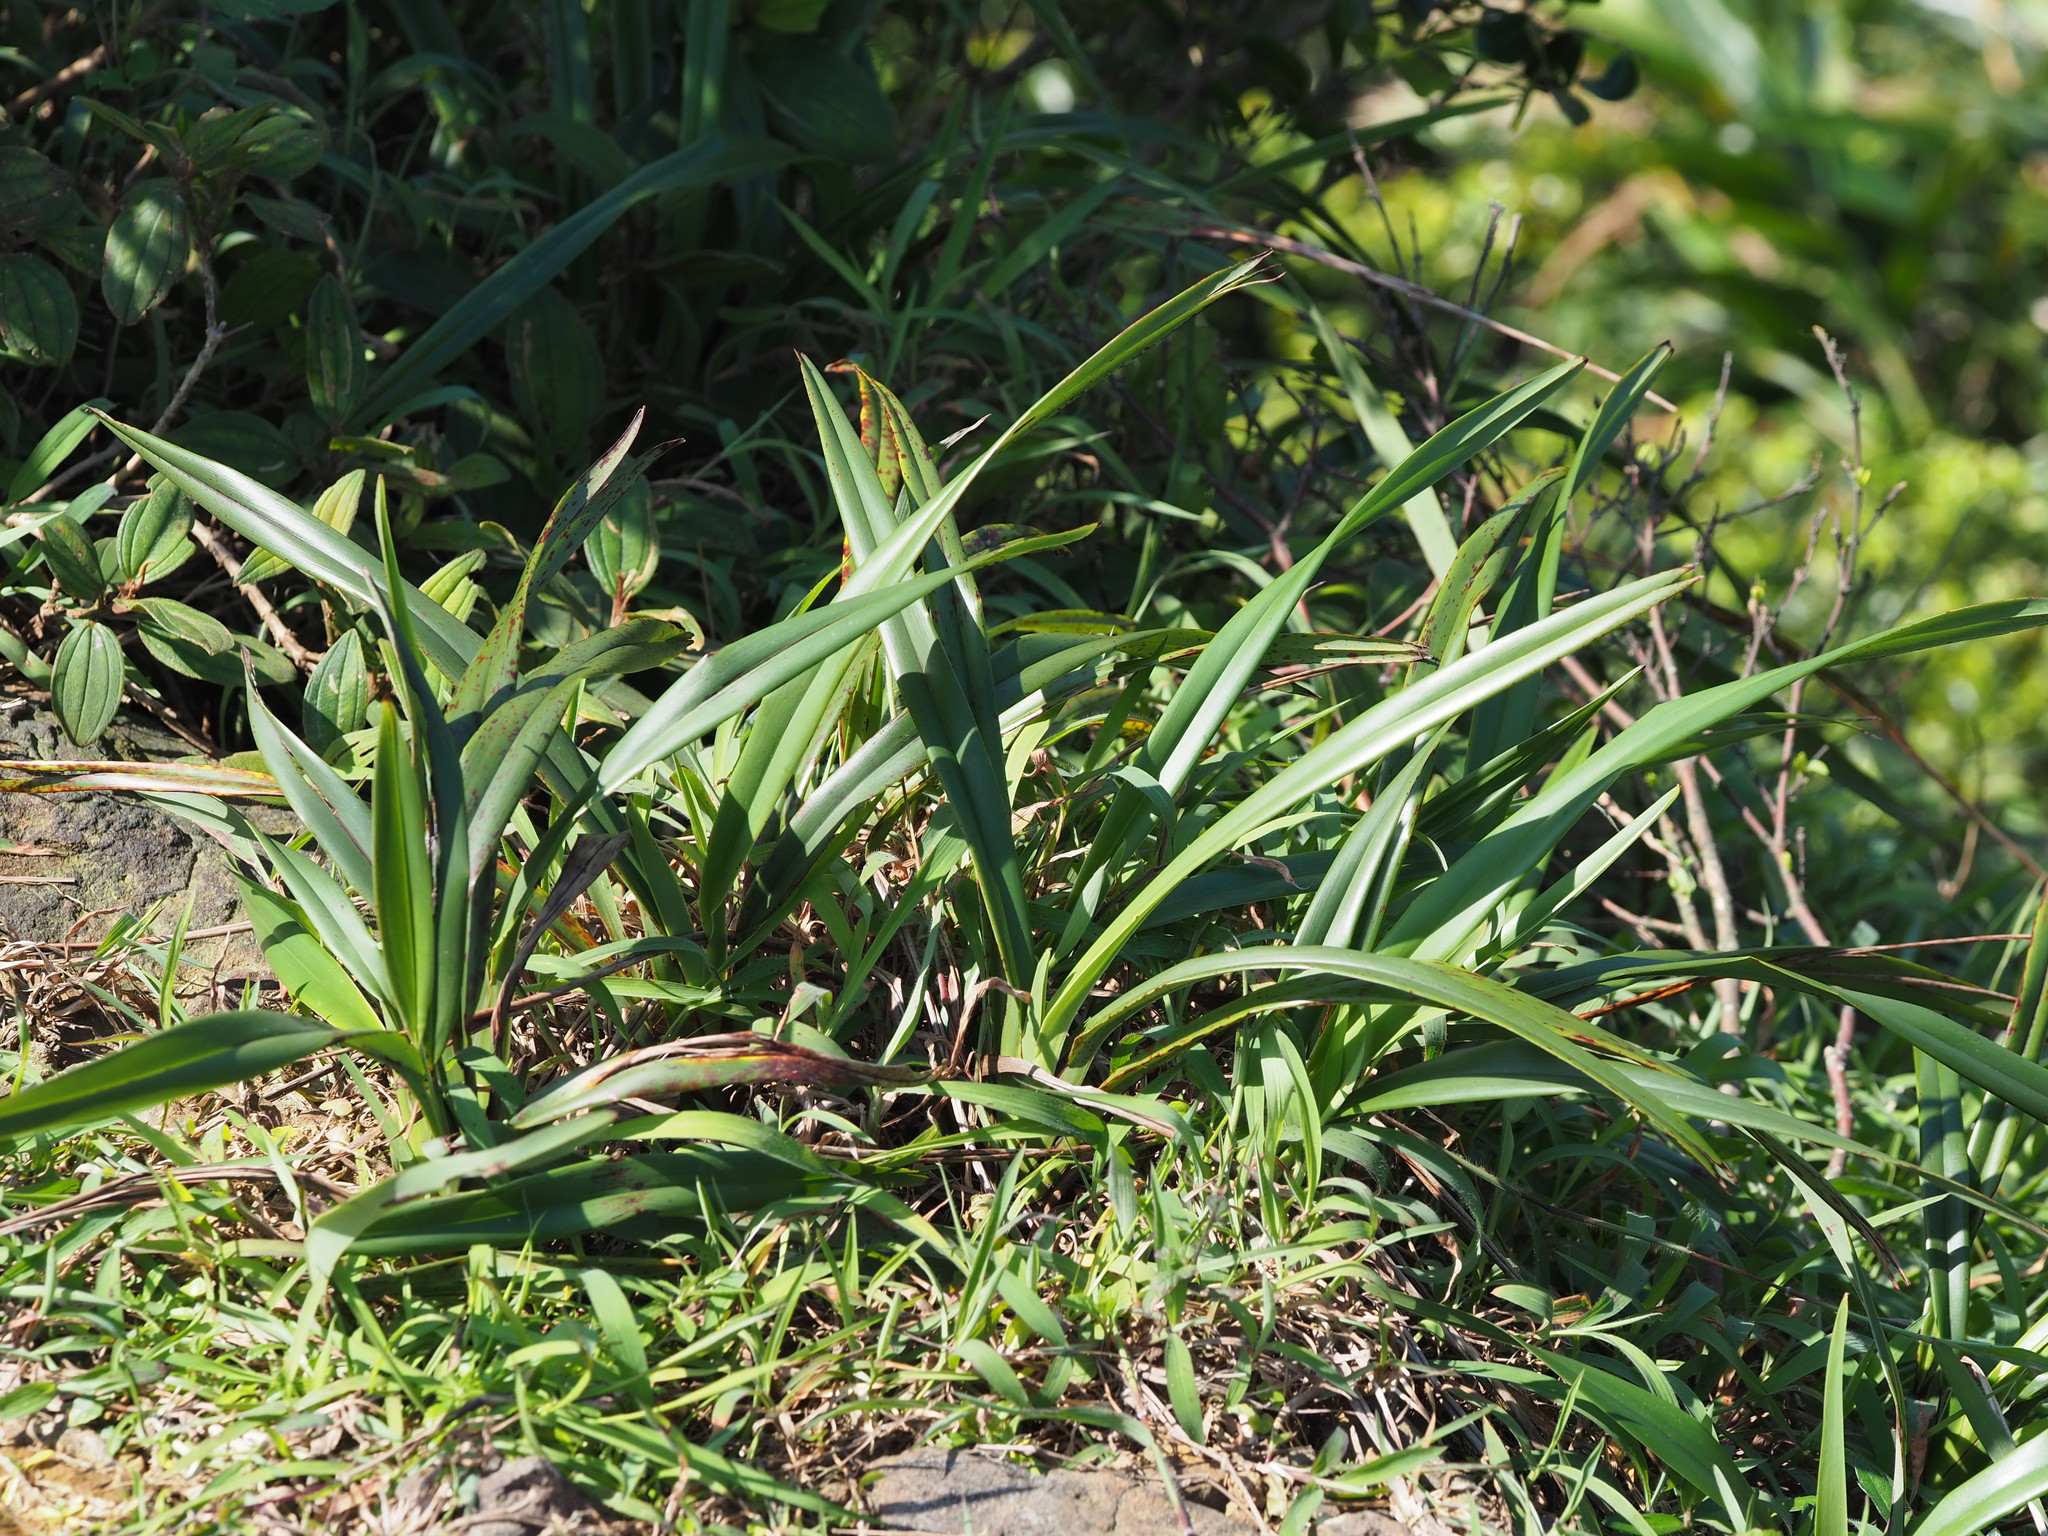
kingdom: Plantae
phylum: Tracheophyta
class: Liliopsida
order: Asparagales
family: Asphodelaceae
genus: Dianella
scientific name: Dianella ensifolia
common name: New zealand lilyplant
